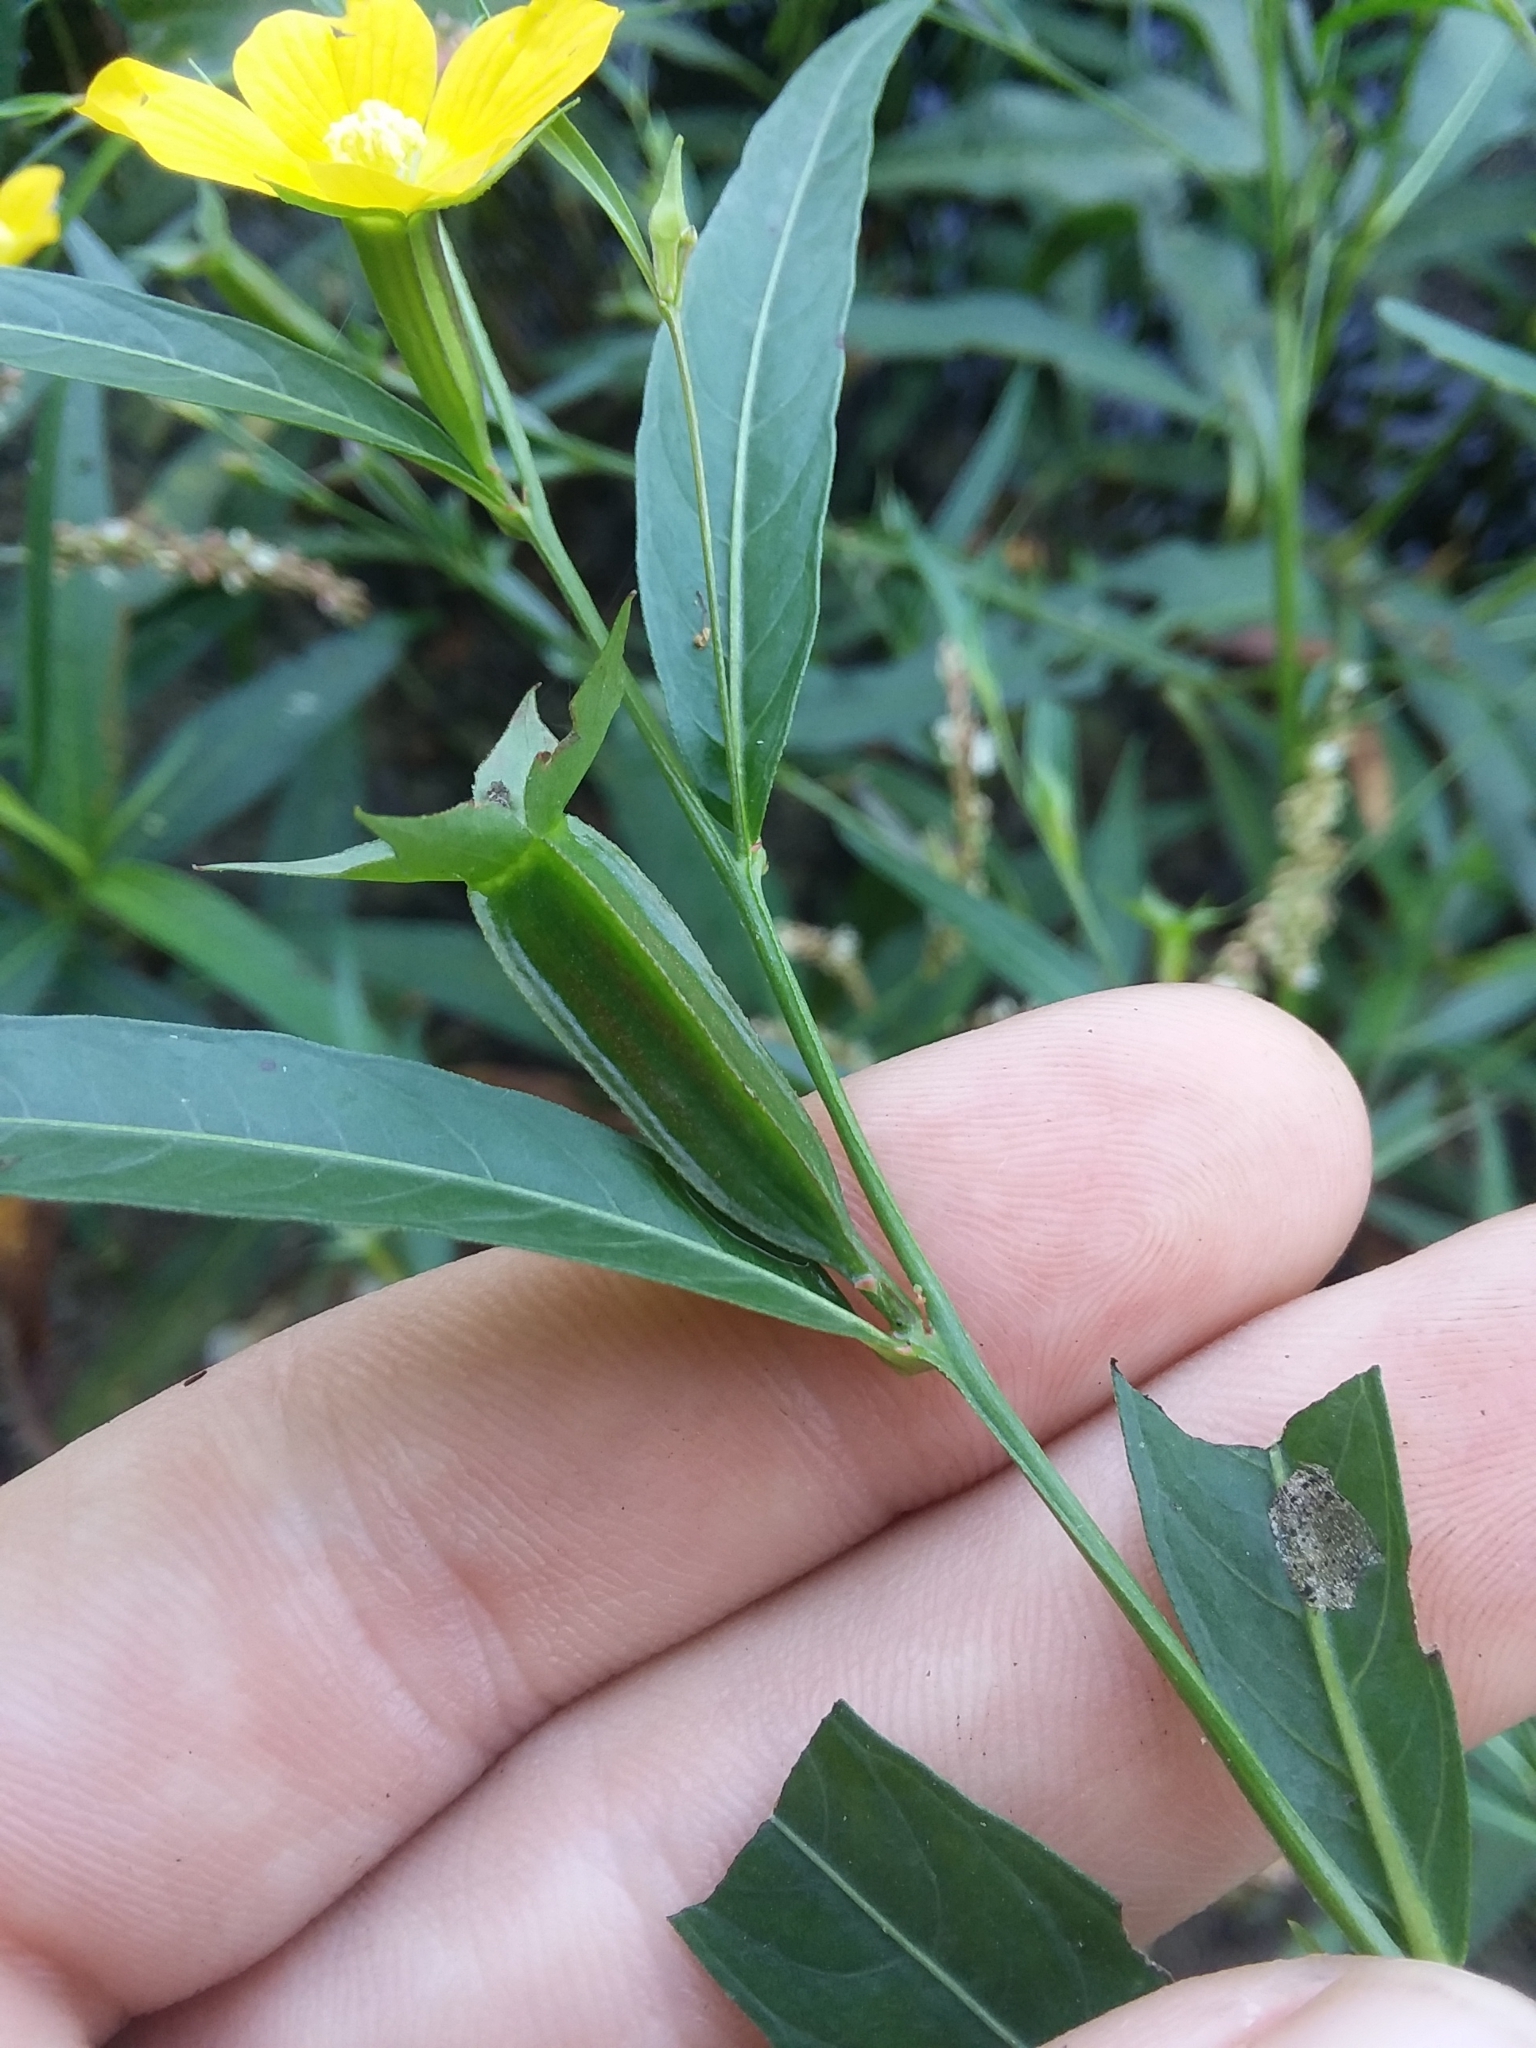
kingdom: Plantae
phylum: Tracheophyta
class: Magnoliopsida
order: Myrtales
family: Onagraceae
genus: Ludwigia
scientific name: Ludwigia decurrens
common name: Winged water-primrose
